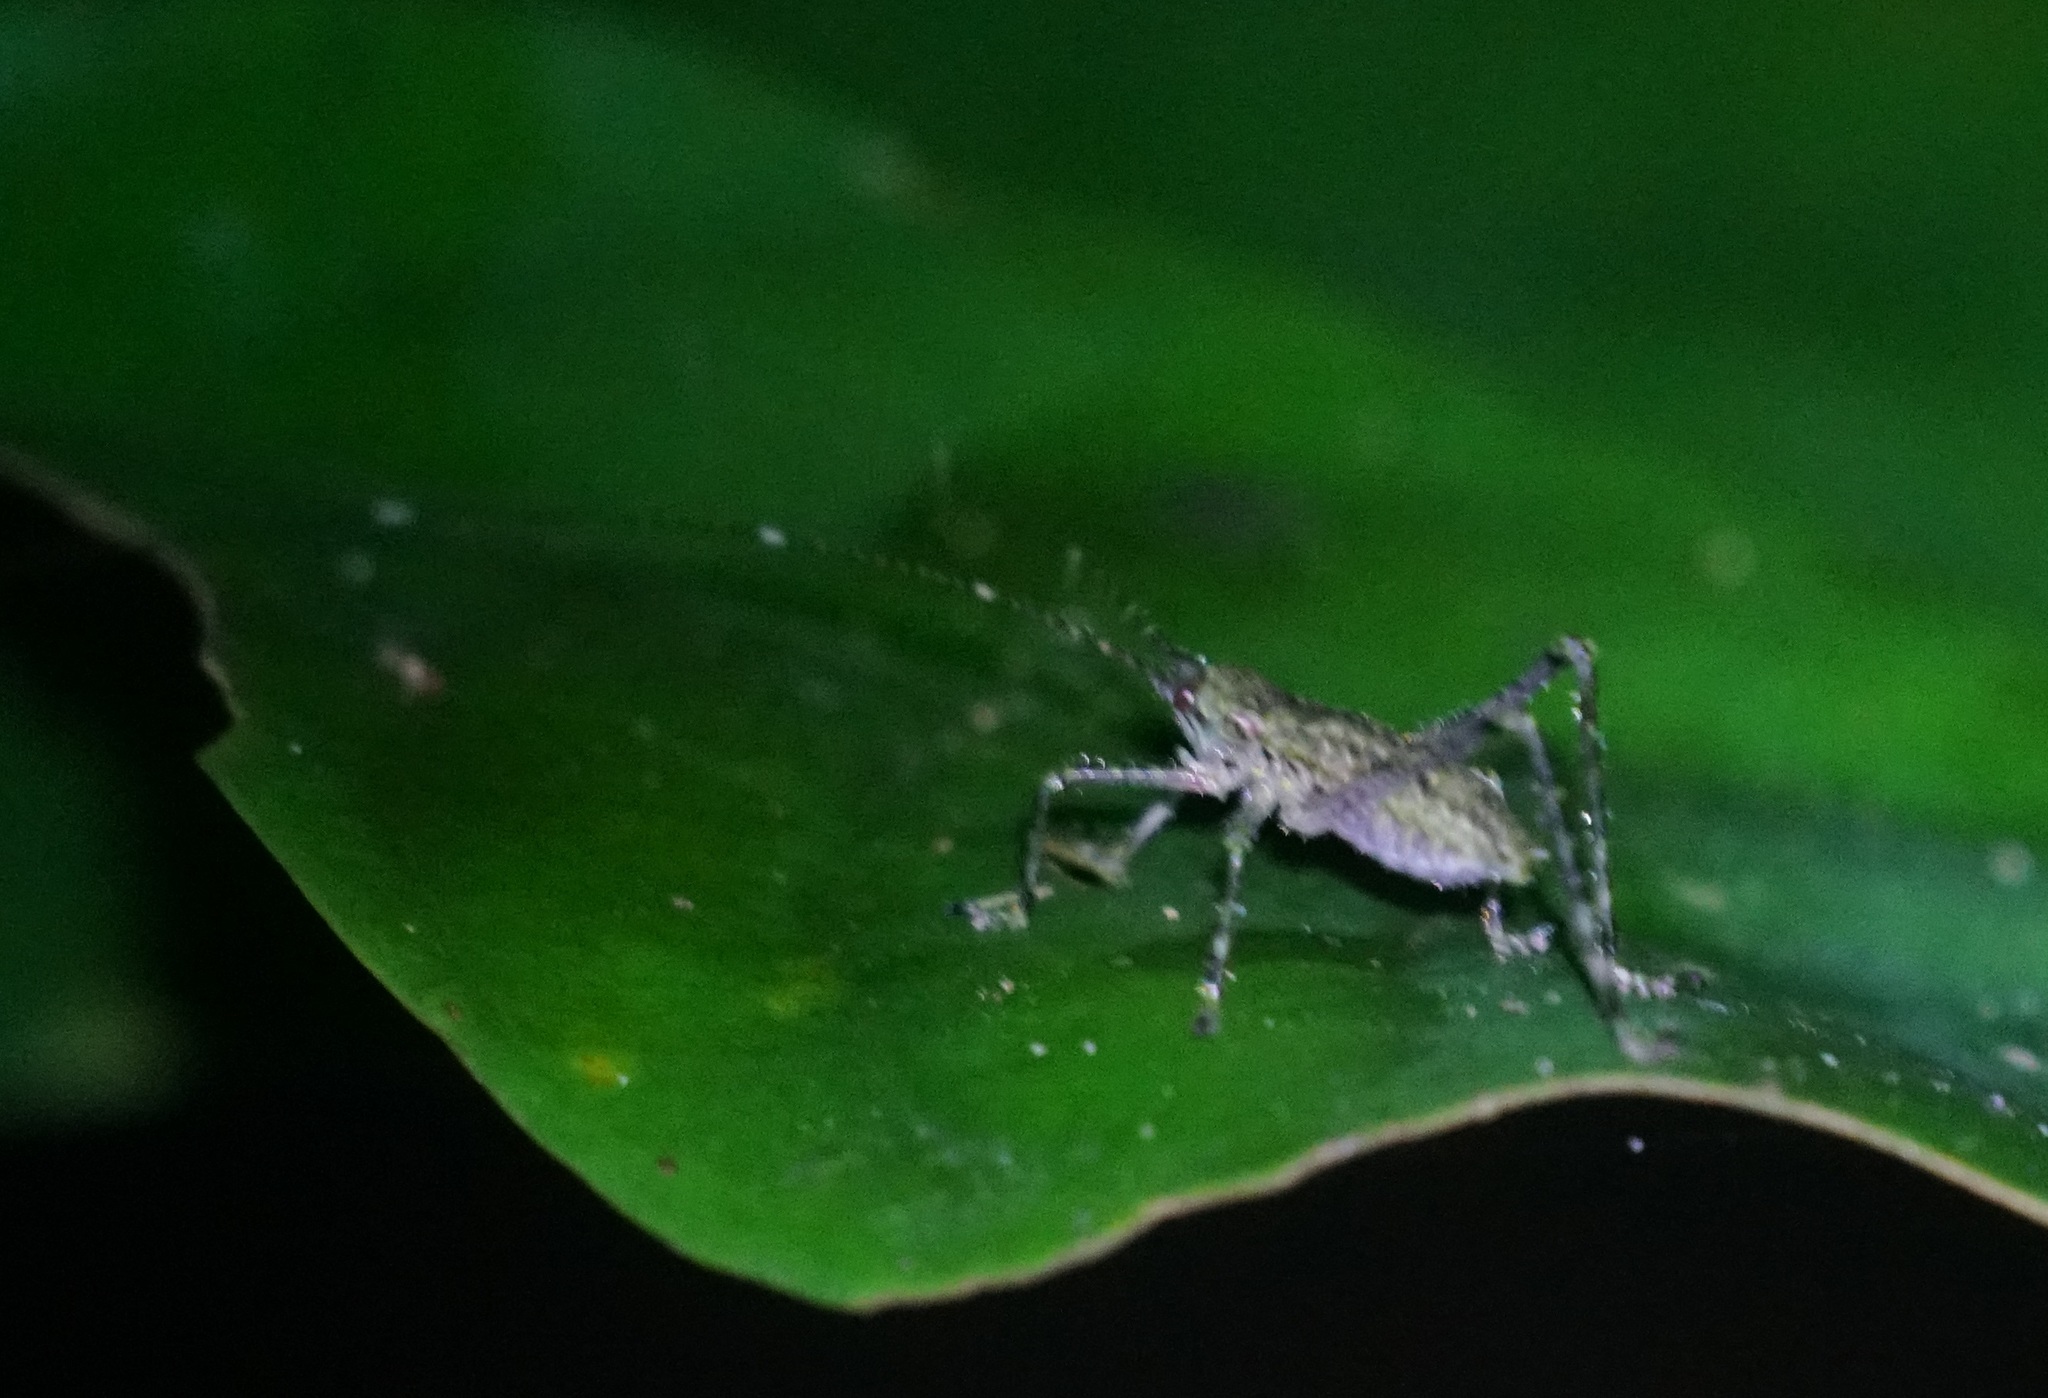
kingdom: Animalia
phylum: Arthropoda
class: Insecta
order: Orthoptera
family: Tettigoniidae
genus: Phricta
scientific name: Phricta spinosa
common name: Giant spiny forest katydid
